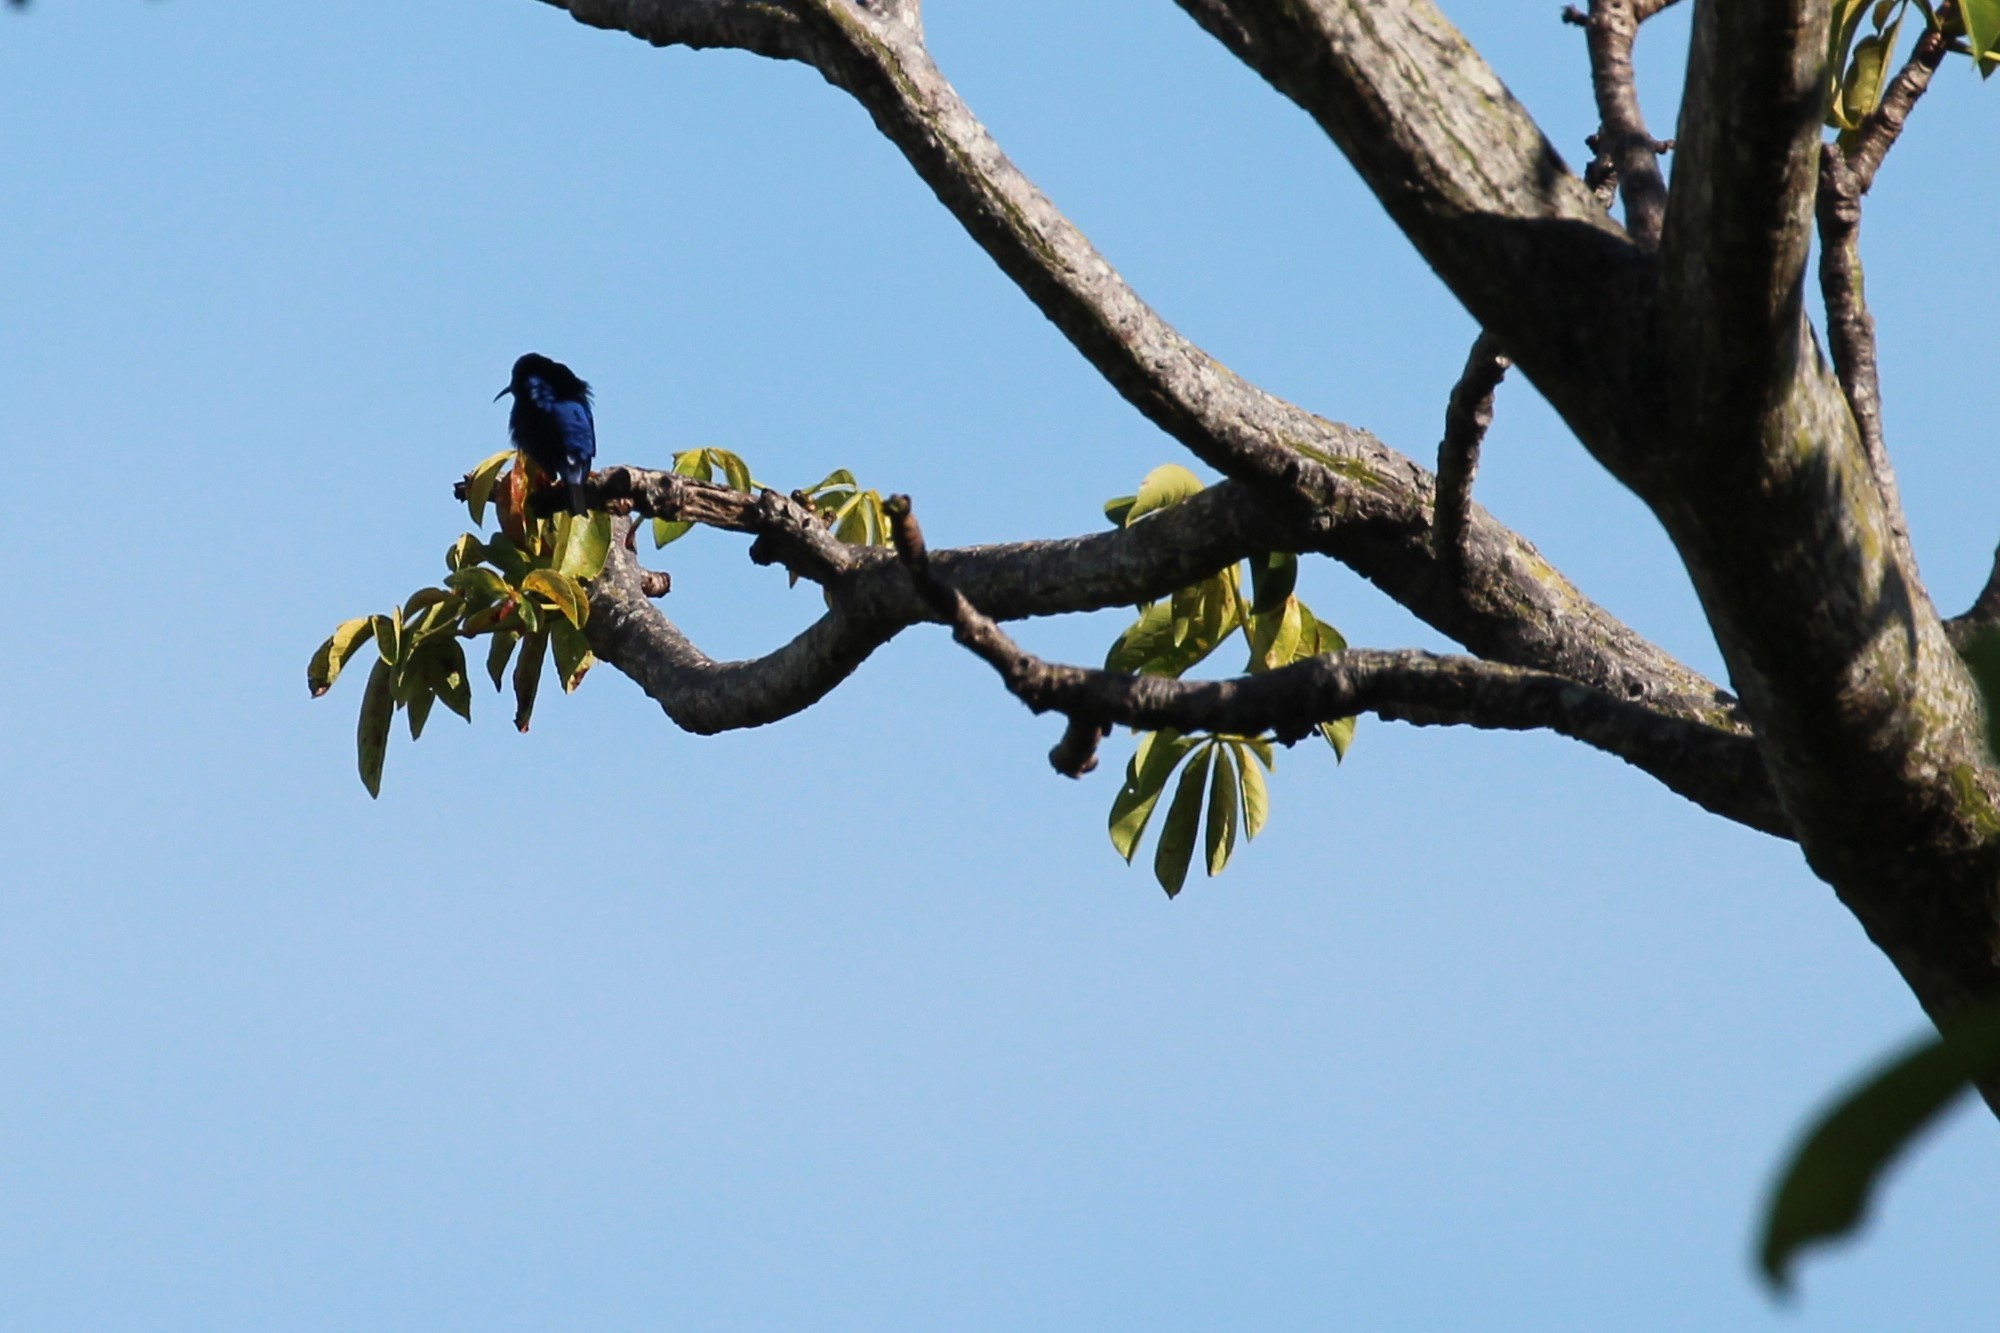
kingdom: Animalia
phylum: Chordata
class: Aves
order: Passeriformes
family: Thraupidae
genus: Cyanerpes
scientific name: Cyanerpes cyaneus
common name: Red-legged honeycreeper
